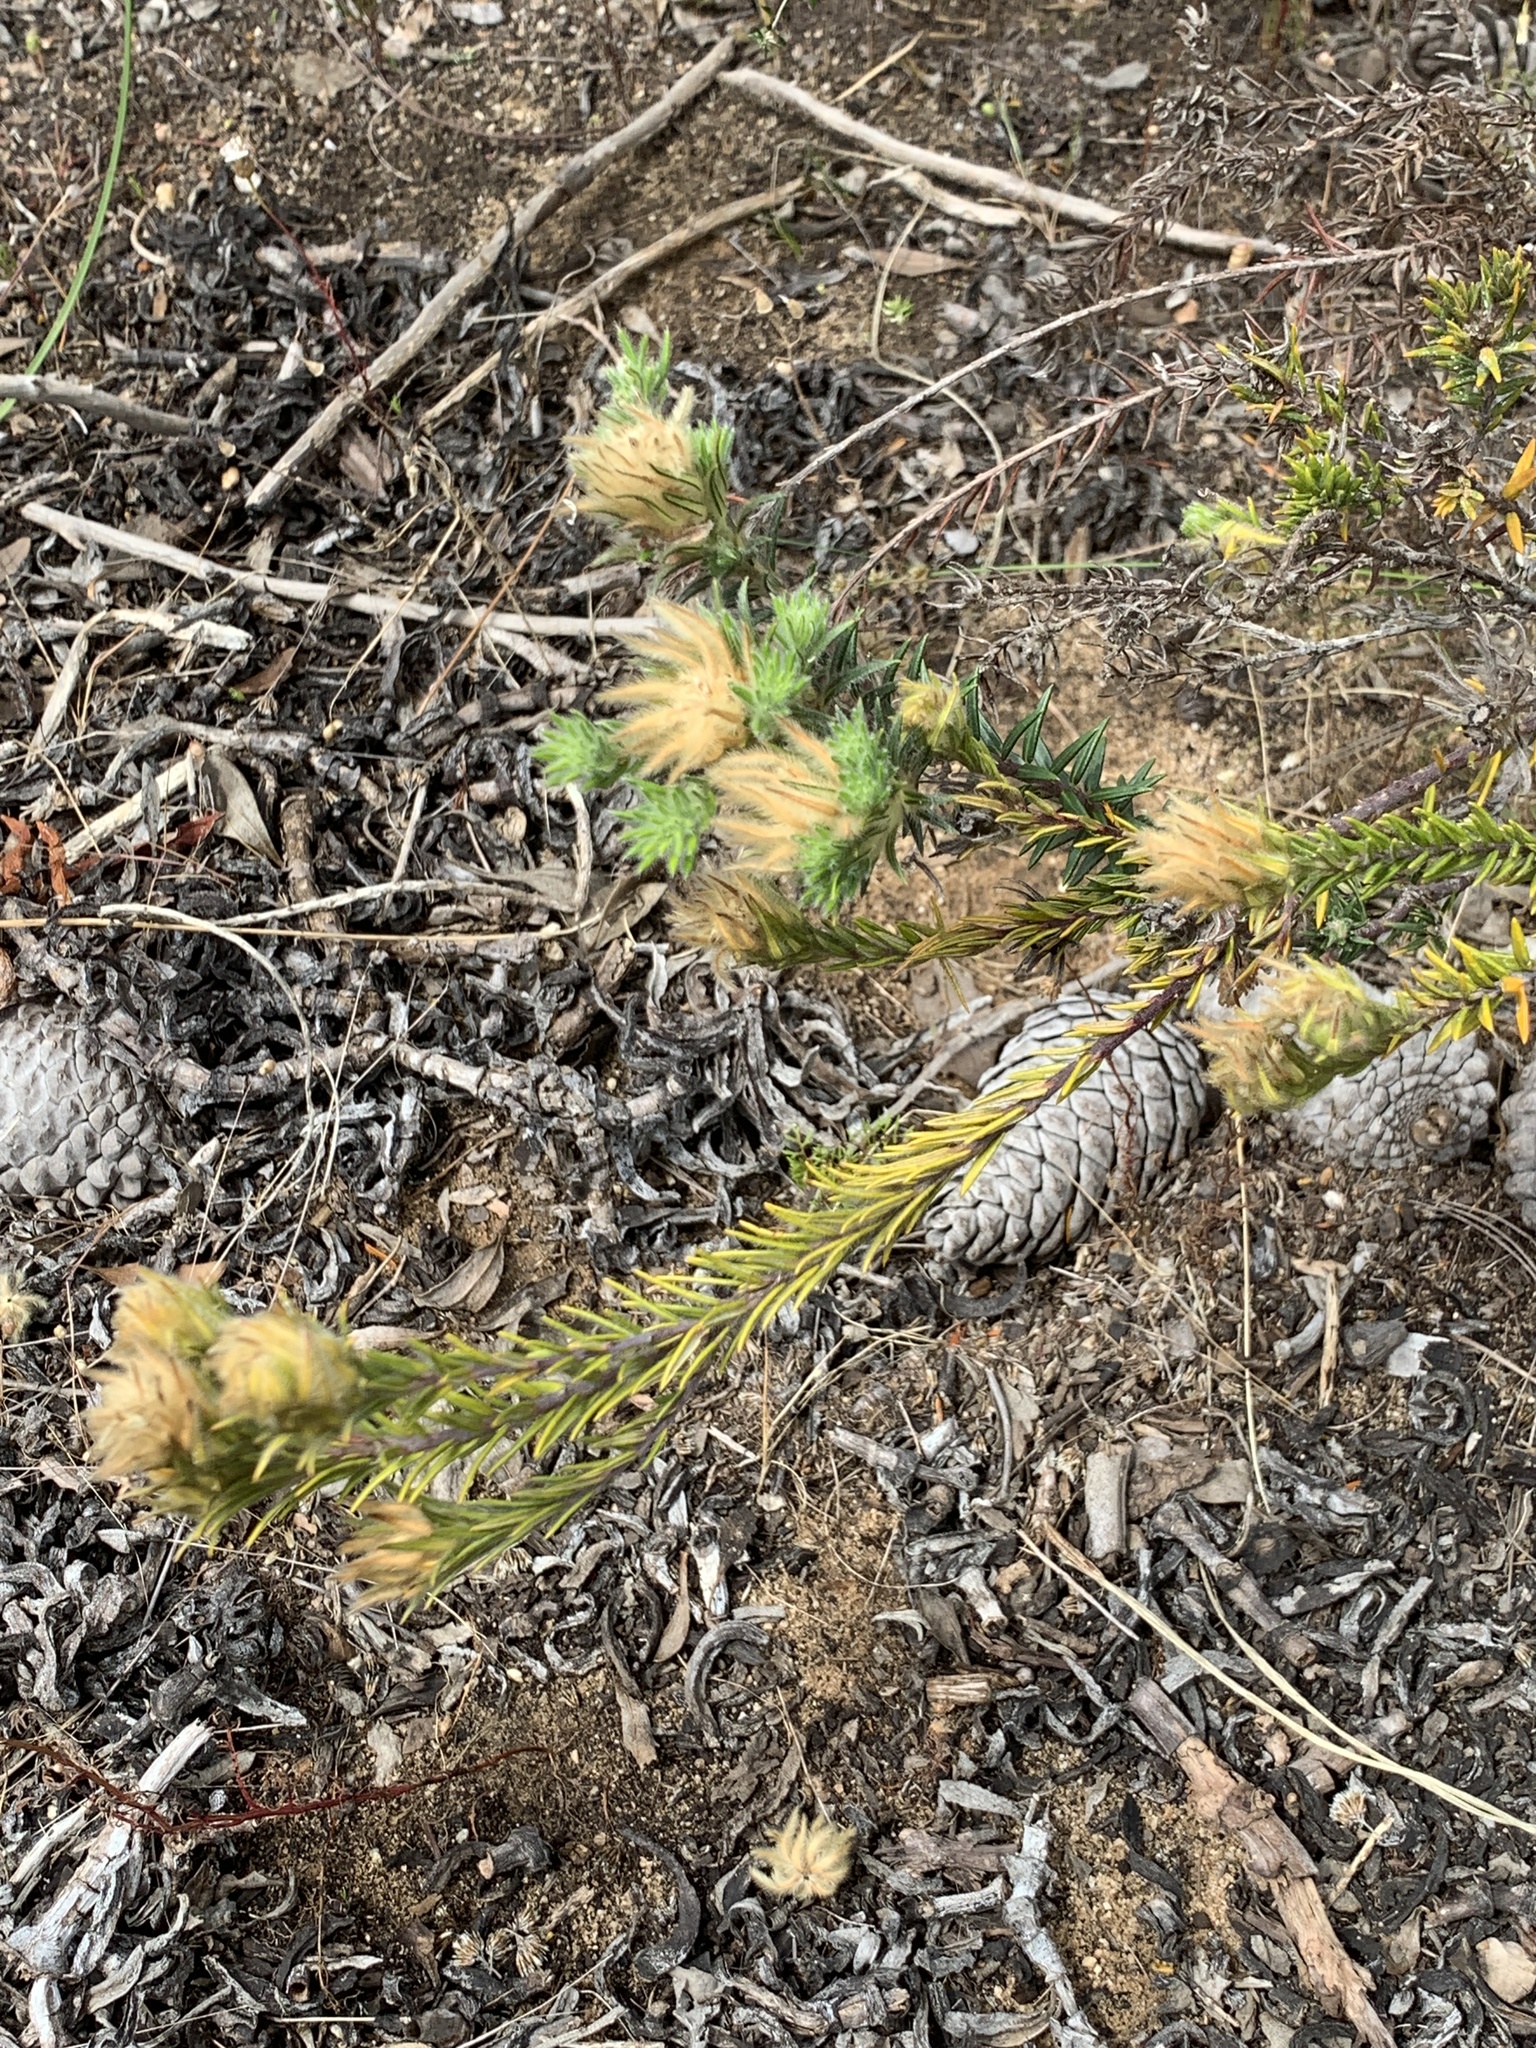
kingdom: Plantae
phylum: Tracheophyta
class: Magnoliopsida
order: Rosales
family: Rhamnaceae
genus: Phylica
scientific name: Phylica pubescens
